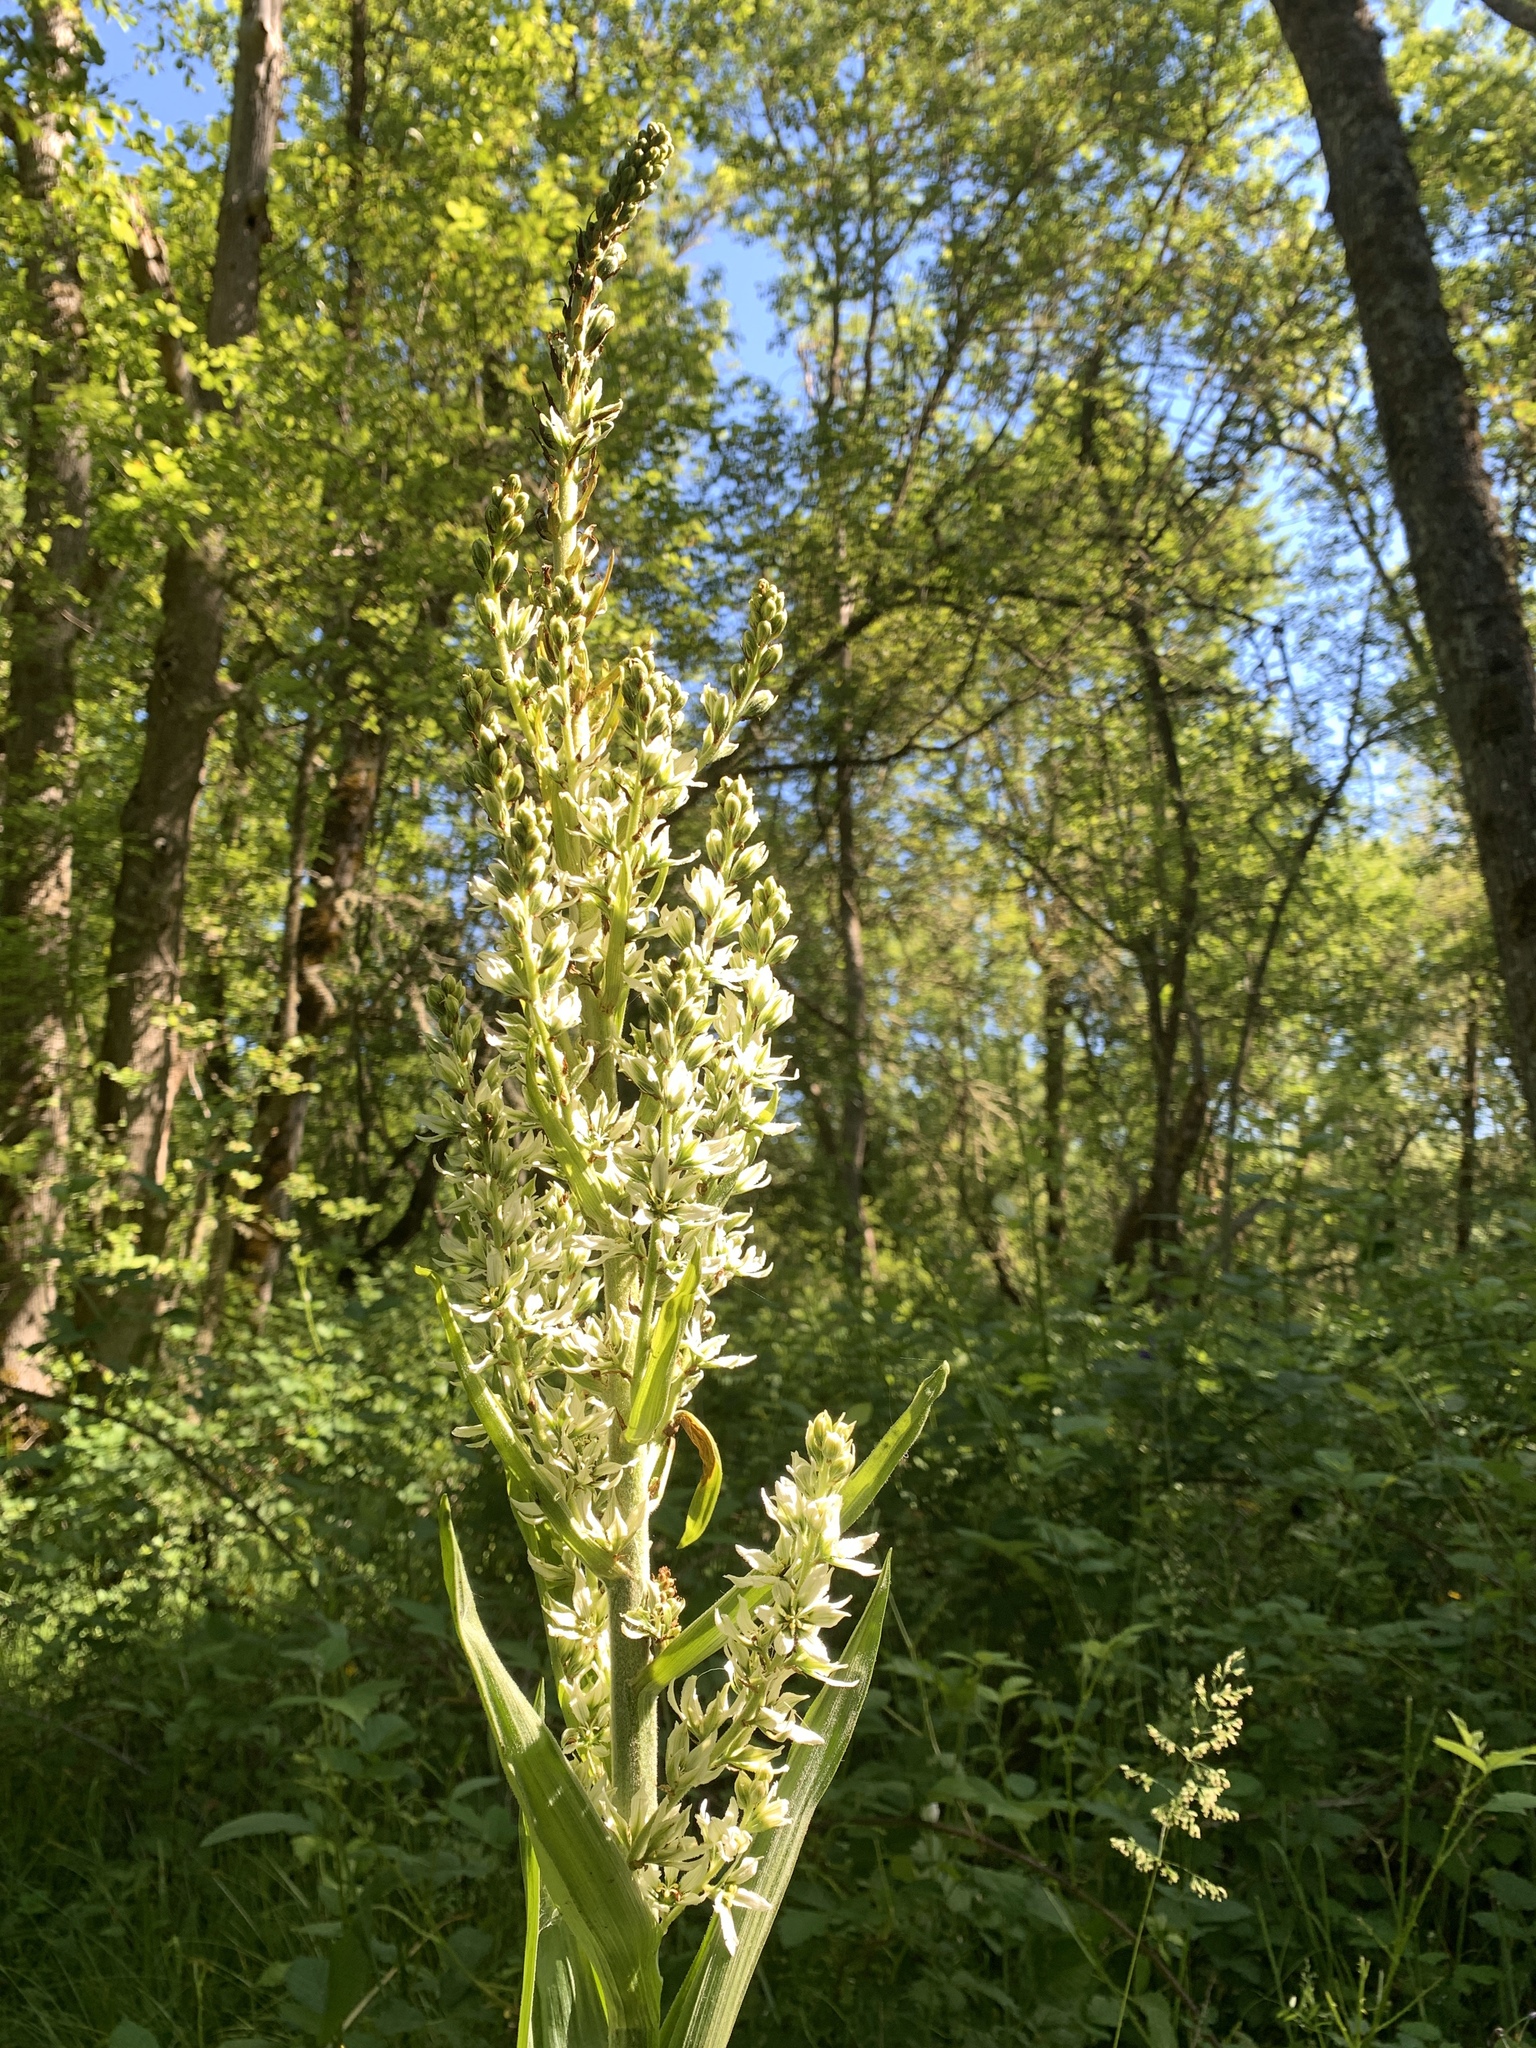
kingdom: Plantae
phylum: Tracheophyta
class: Liliopsida
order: Liliales
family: Melanthiaceae
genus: Veratrum
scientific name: Veratrum californicum
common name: California veratrum
